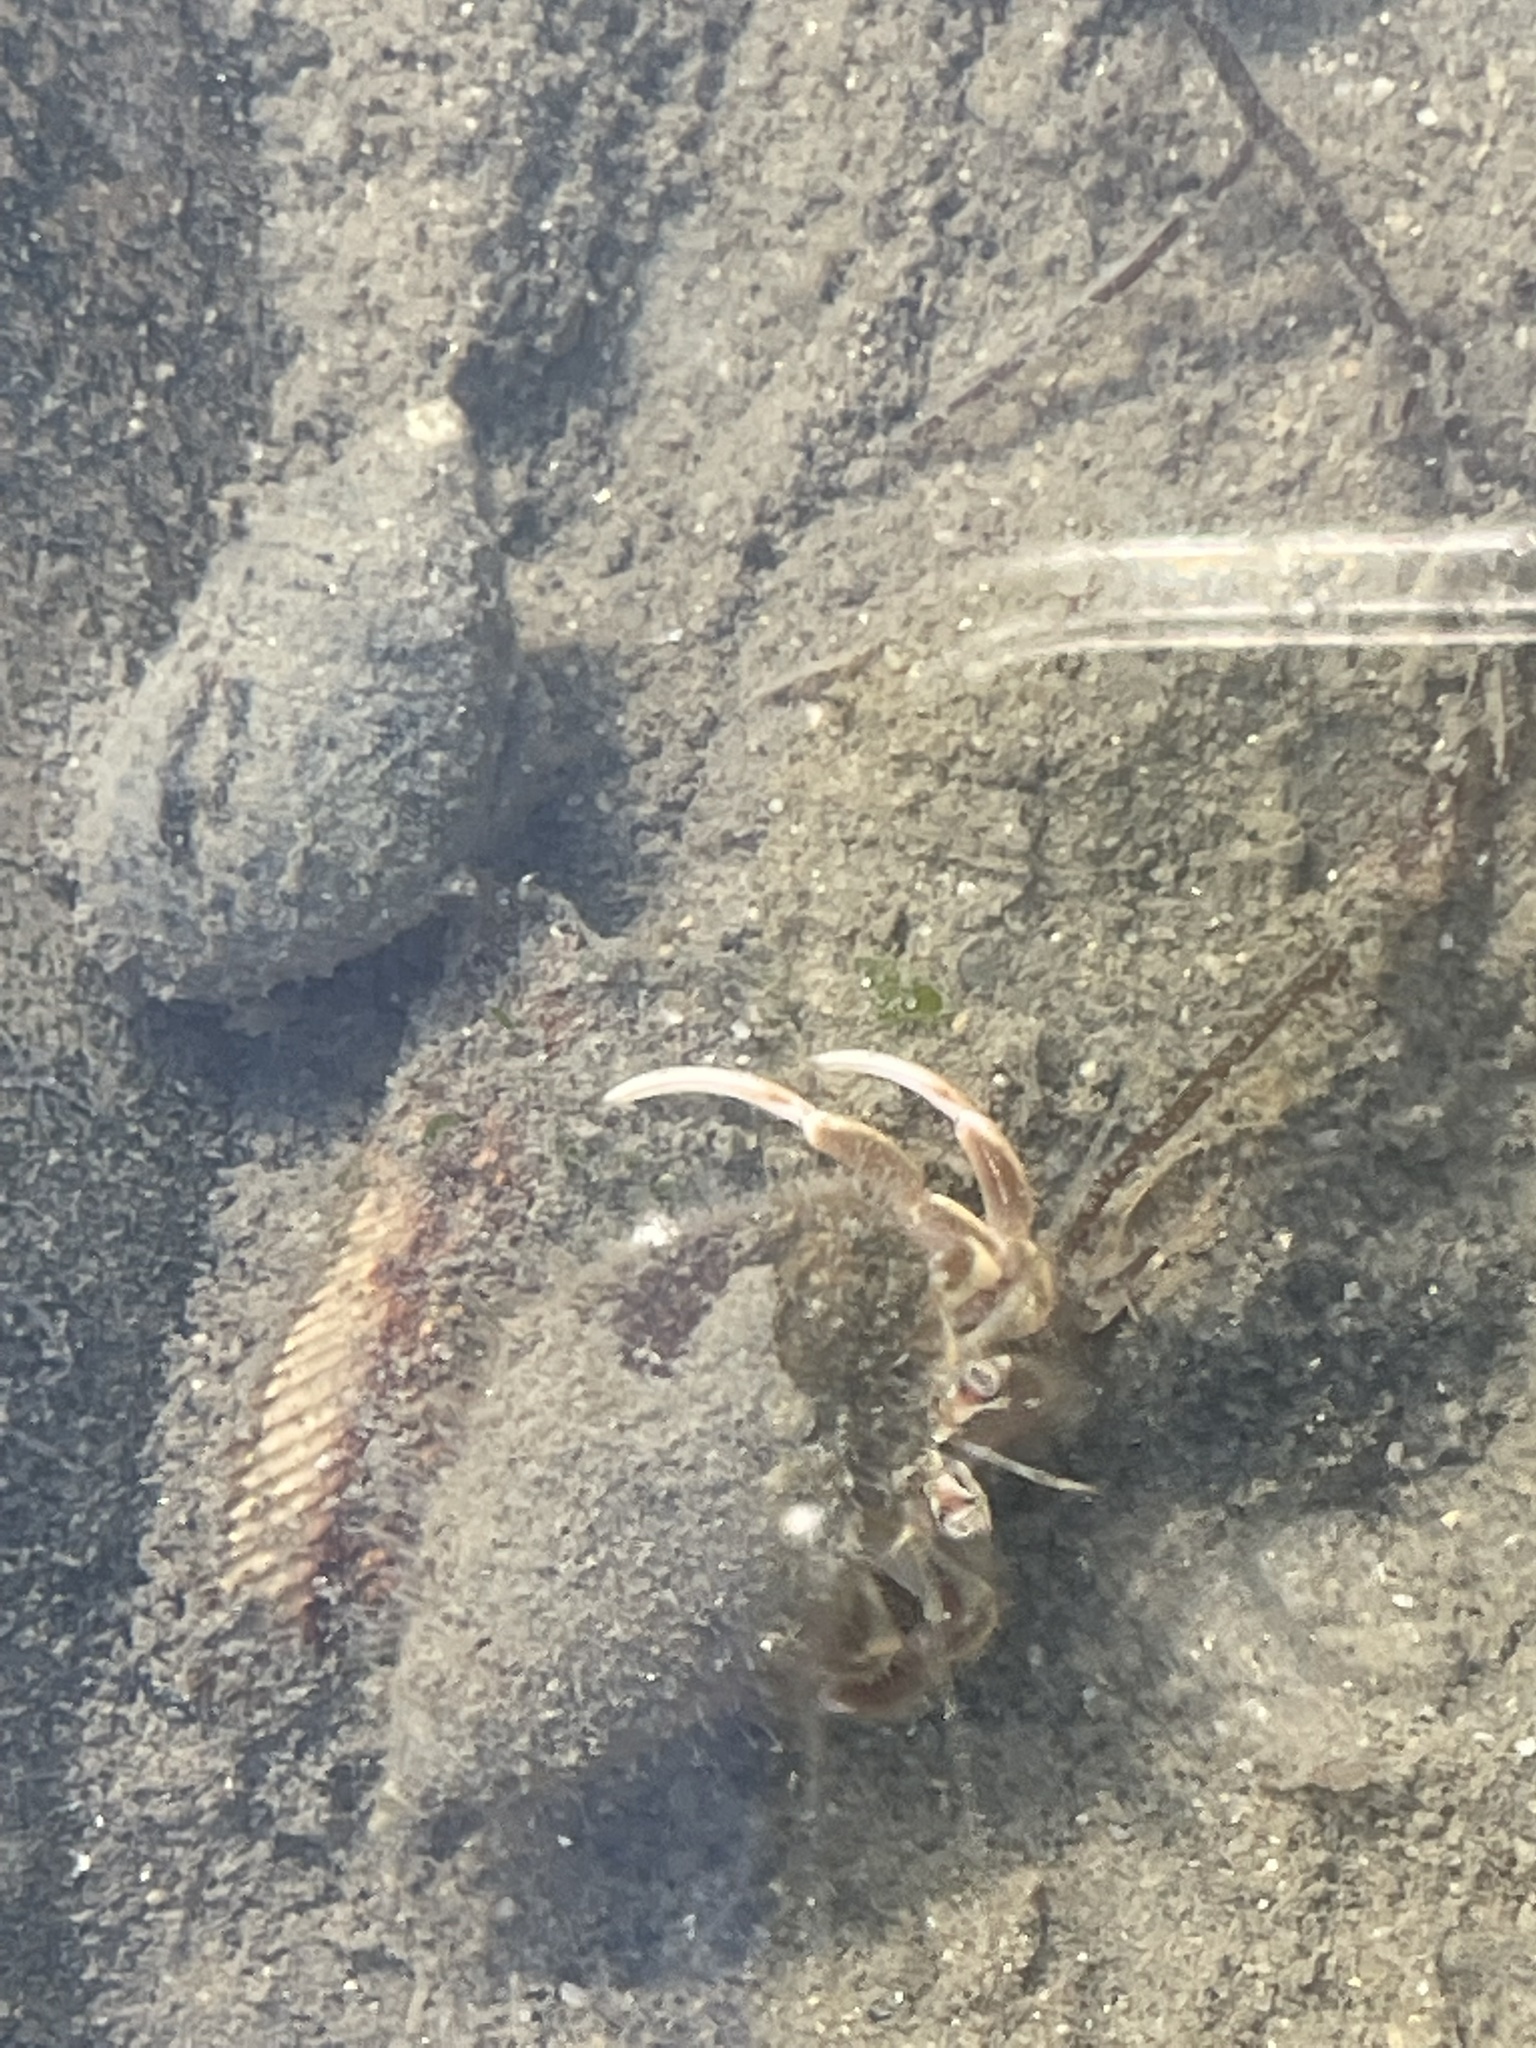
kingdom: Animalia
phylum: Arthropoda
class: Malacostraca
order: Decapoda
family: Paguridae
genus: Pagurus
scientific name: Pagurus longicarpus
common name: Long-armed hermit crab
